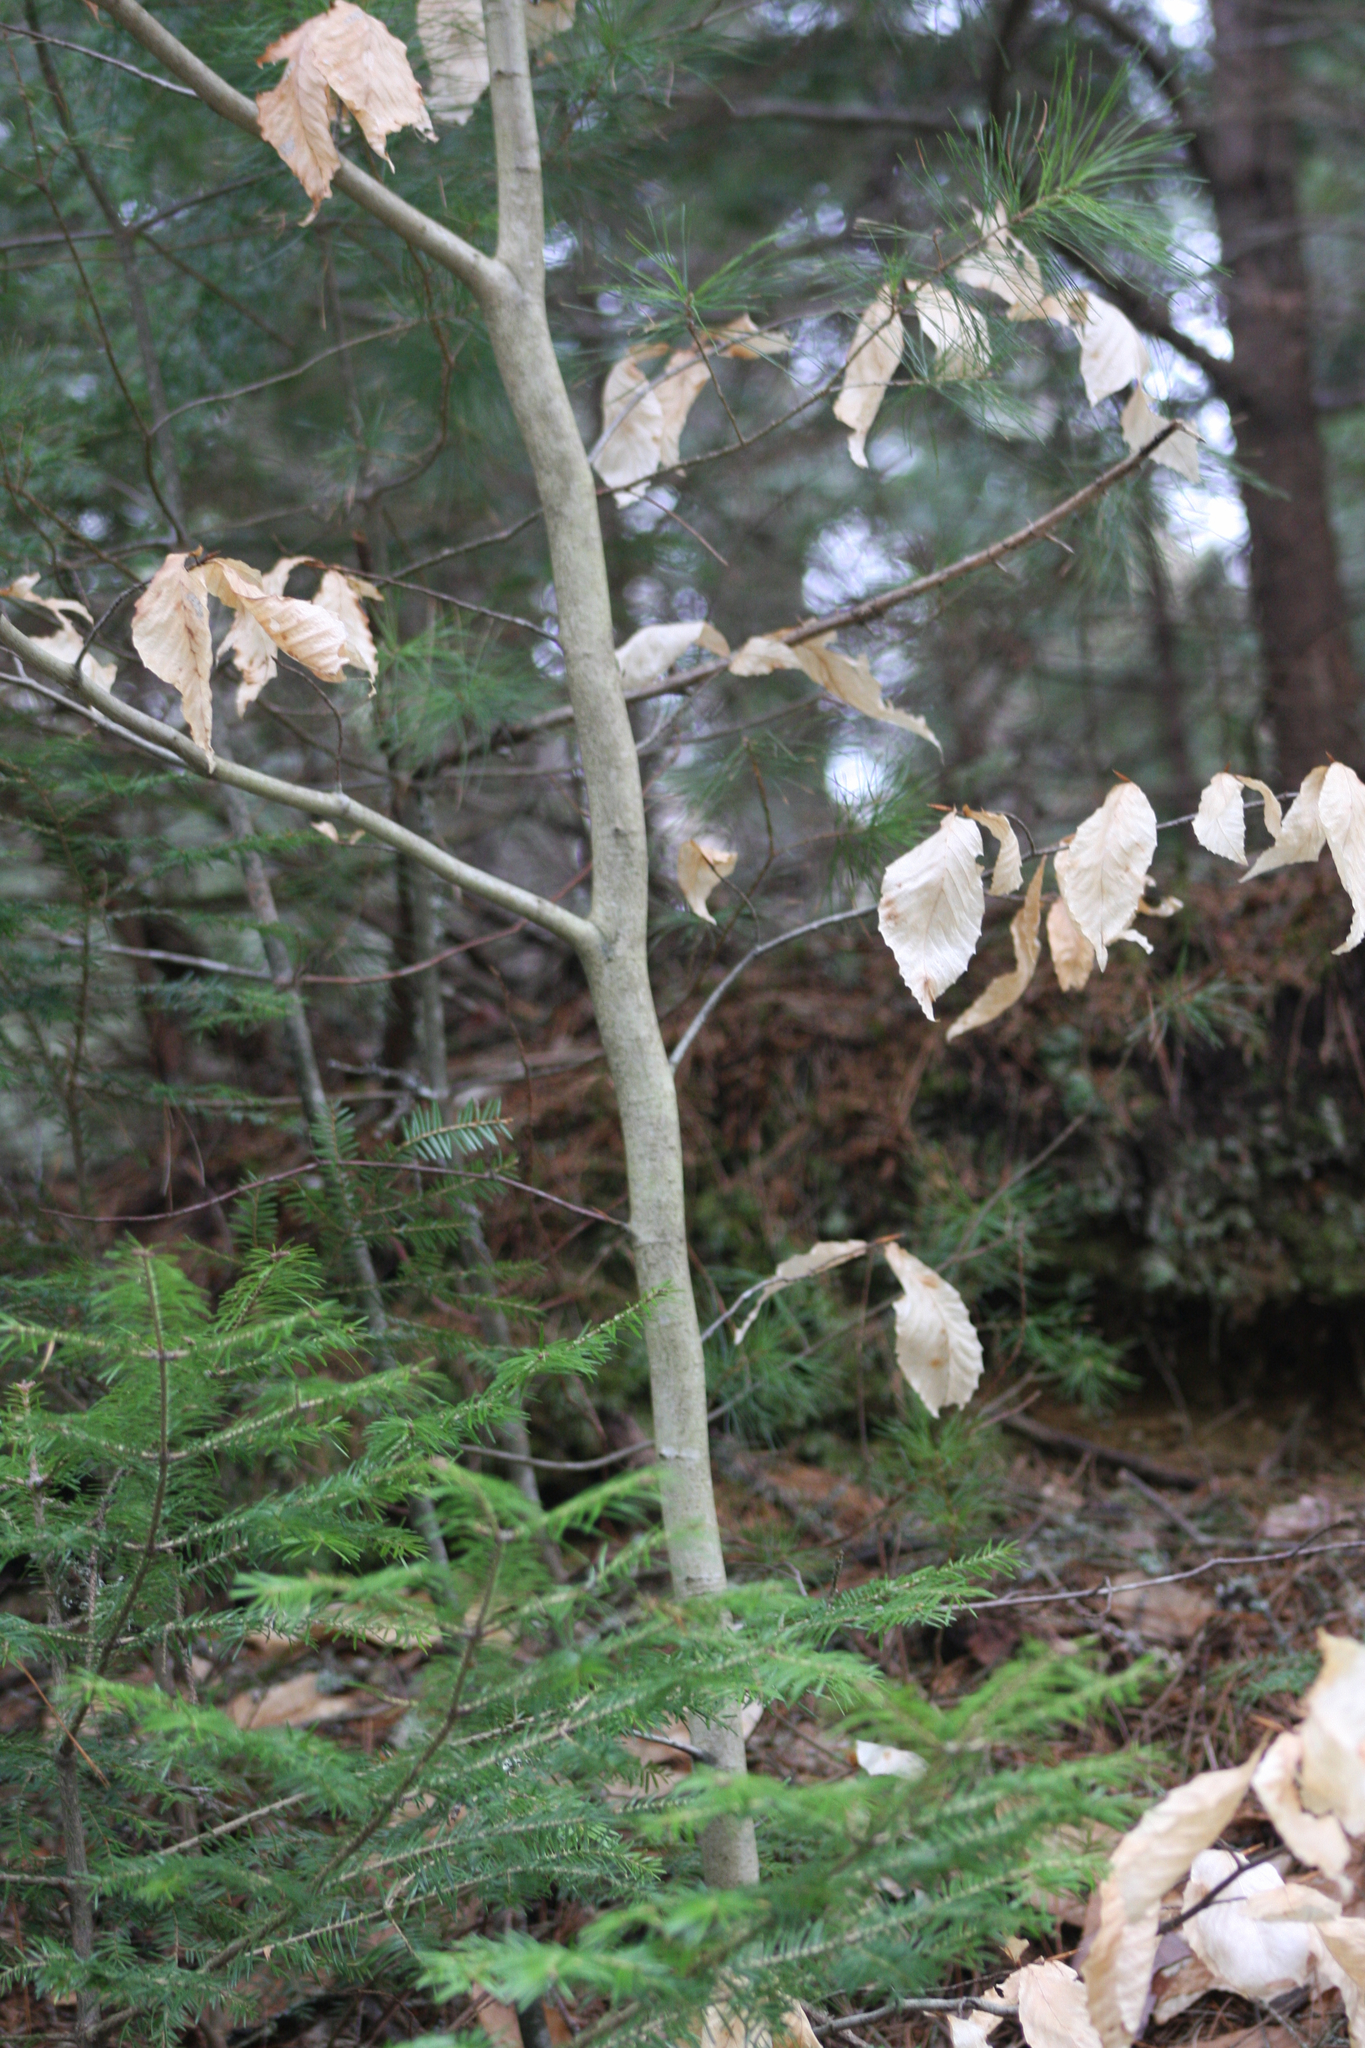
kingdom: Plantae
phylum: Tracheophyta
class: Magnoliopsida
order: Fagales
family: Fagaceae
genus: Fagus
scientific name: Fagus grandifolia
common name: American beech
